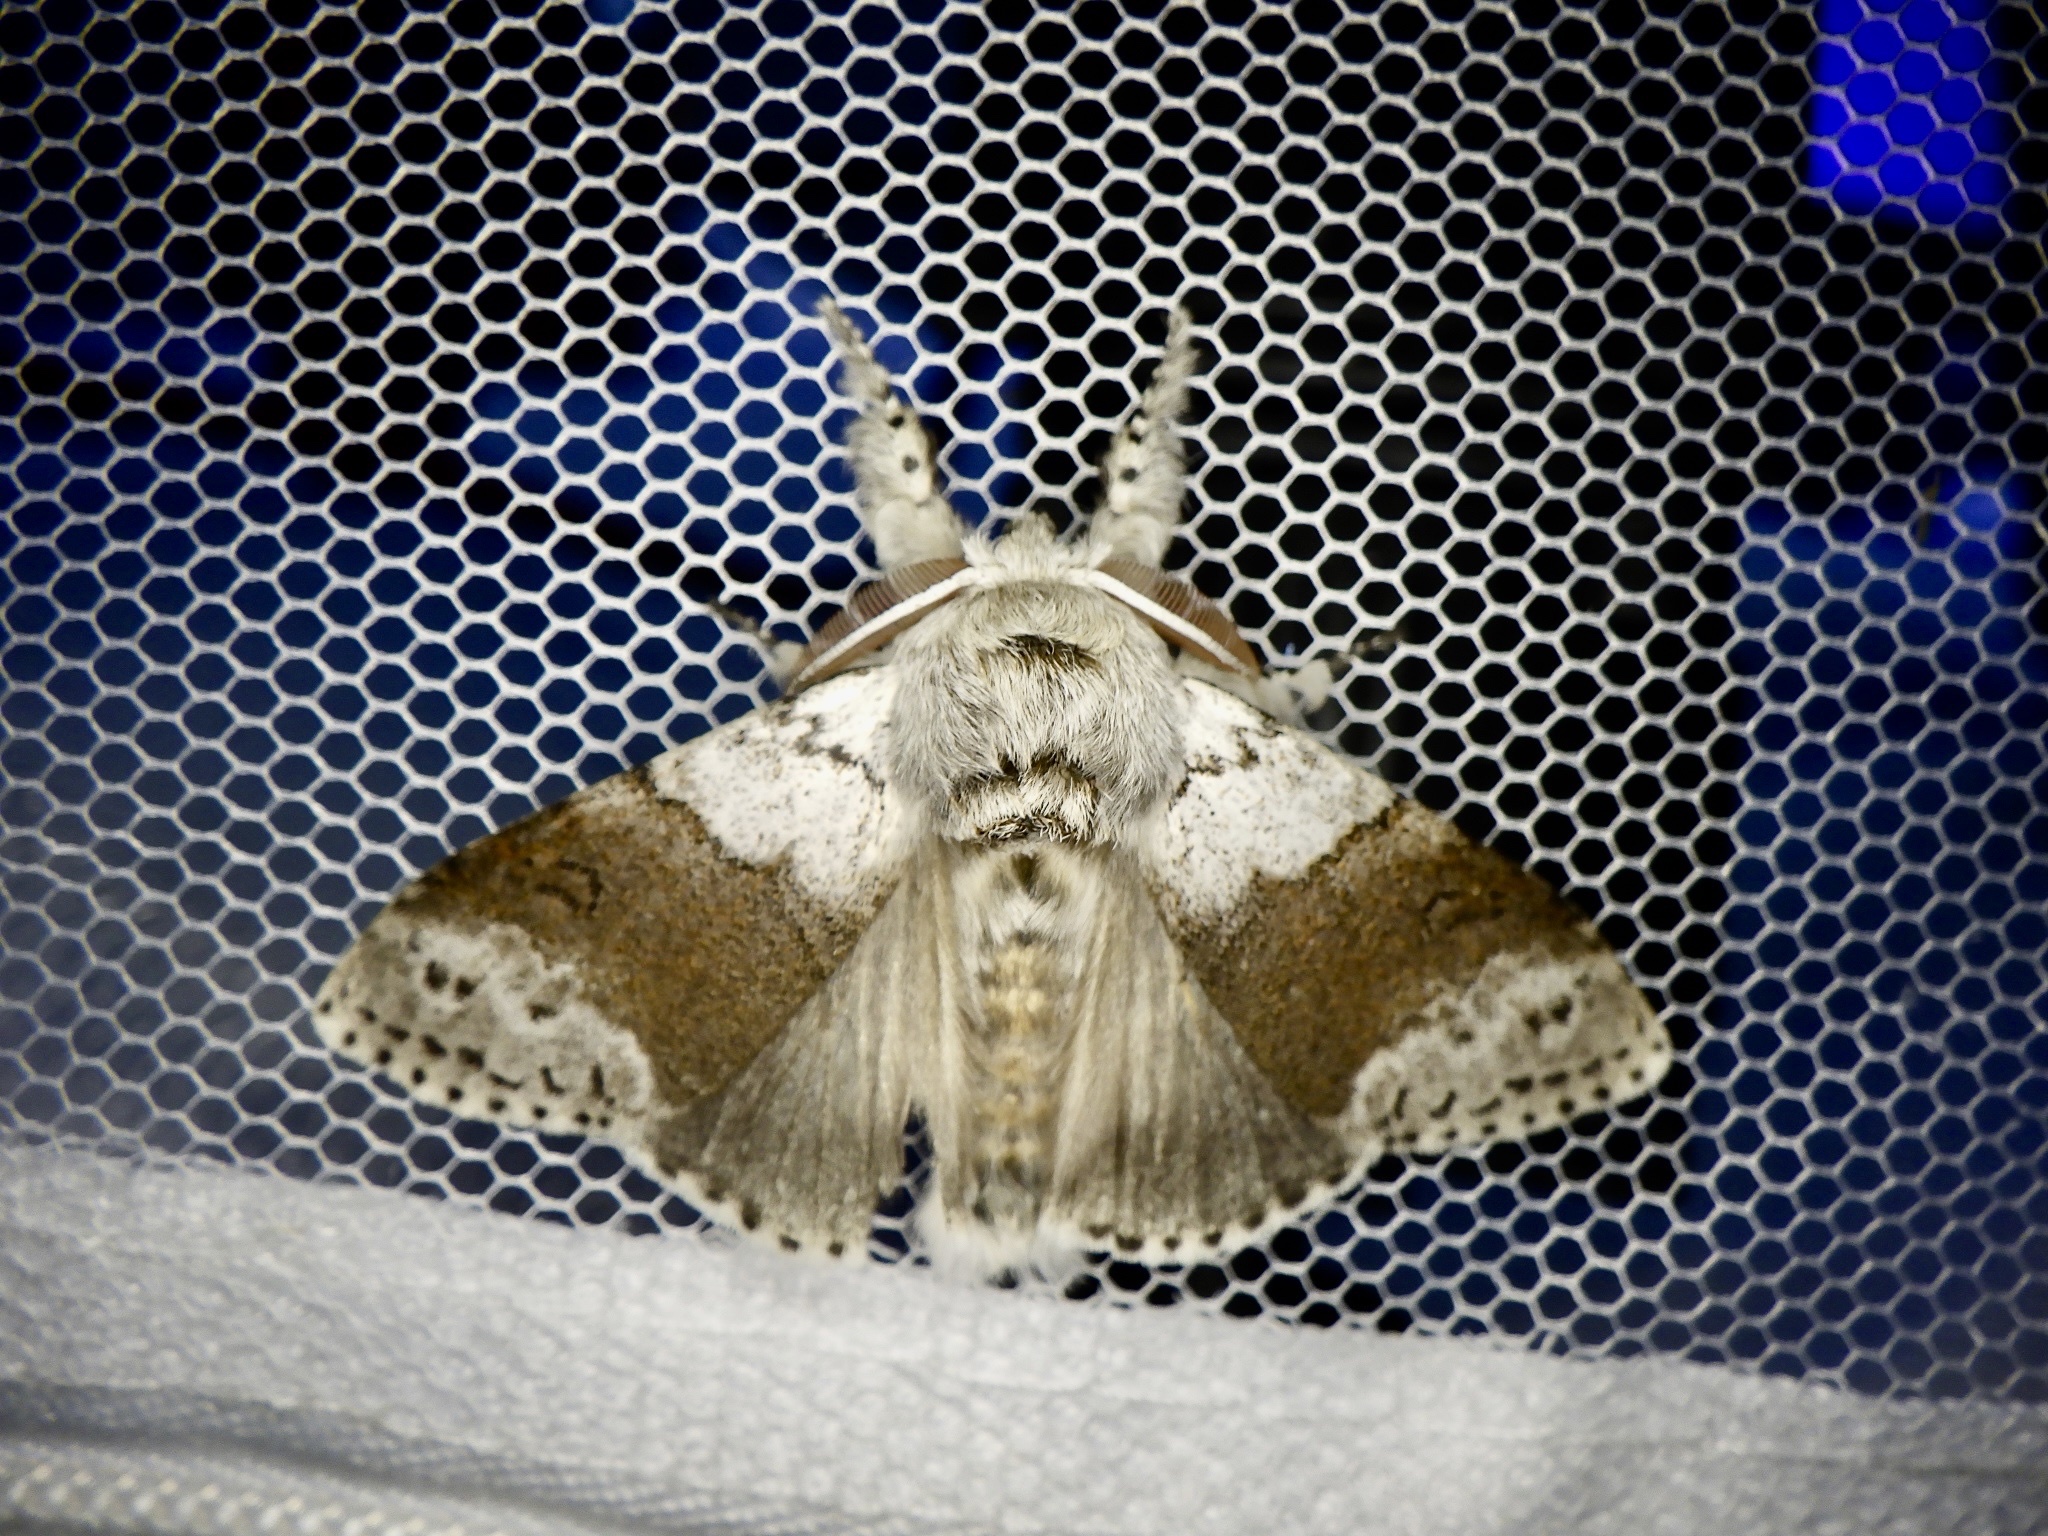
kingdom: Animalia
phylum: Arthropoda
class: Insecta
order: Lepidoptera
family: Erebidae
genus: Calliteara
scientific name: Calliteara
